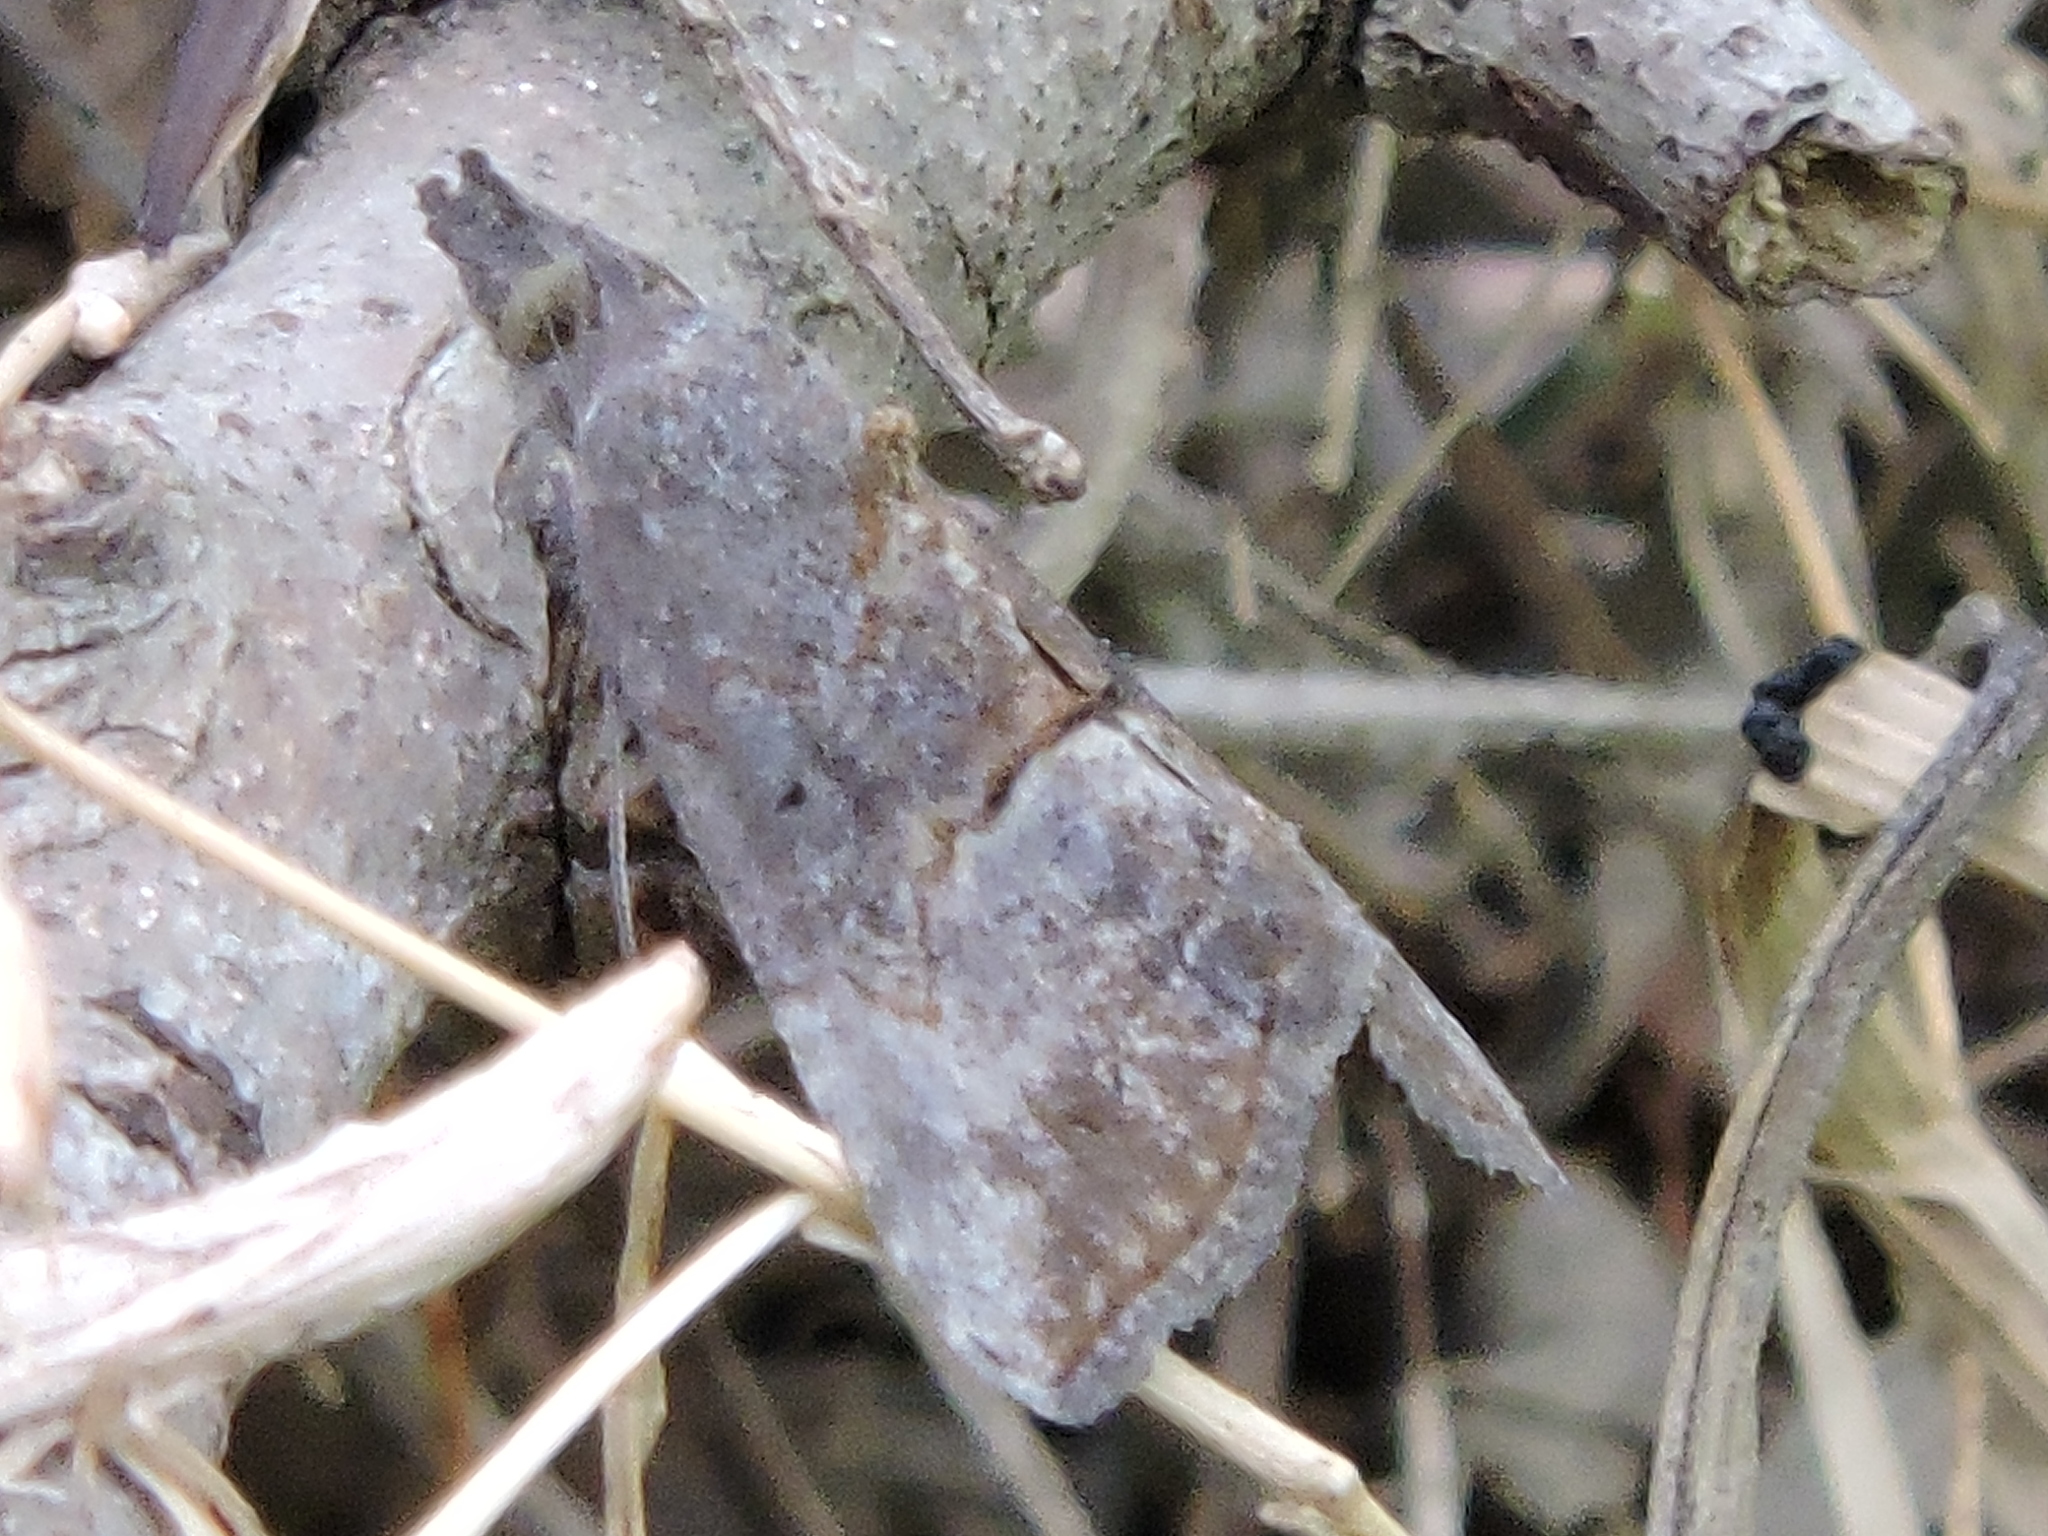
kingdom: Animalia
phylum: Arthropoda
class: Insecta
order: Lepidoptera
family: Erebidae
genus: Hypena
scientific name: Hypena scabra
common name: Green cloverworm
